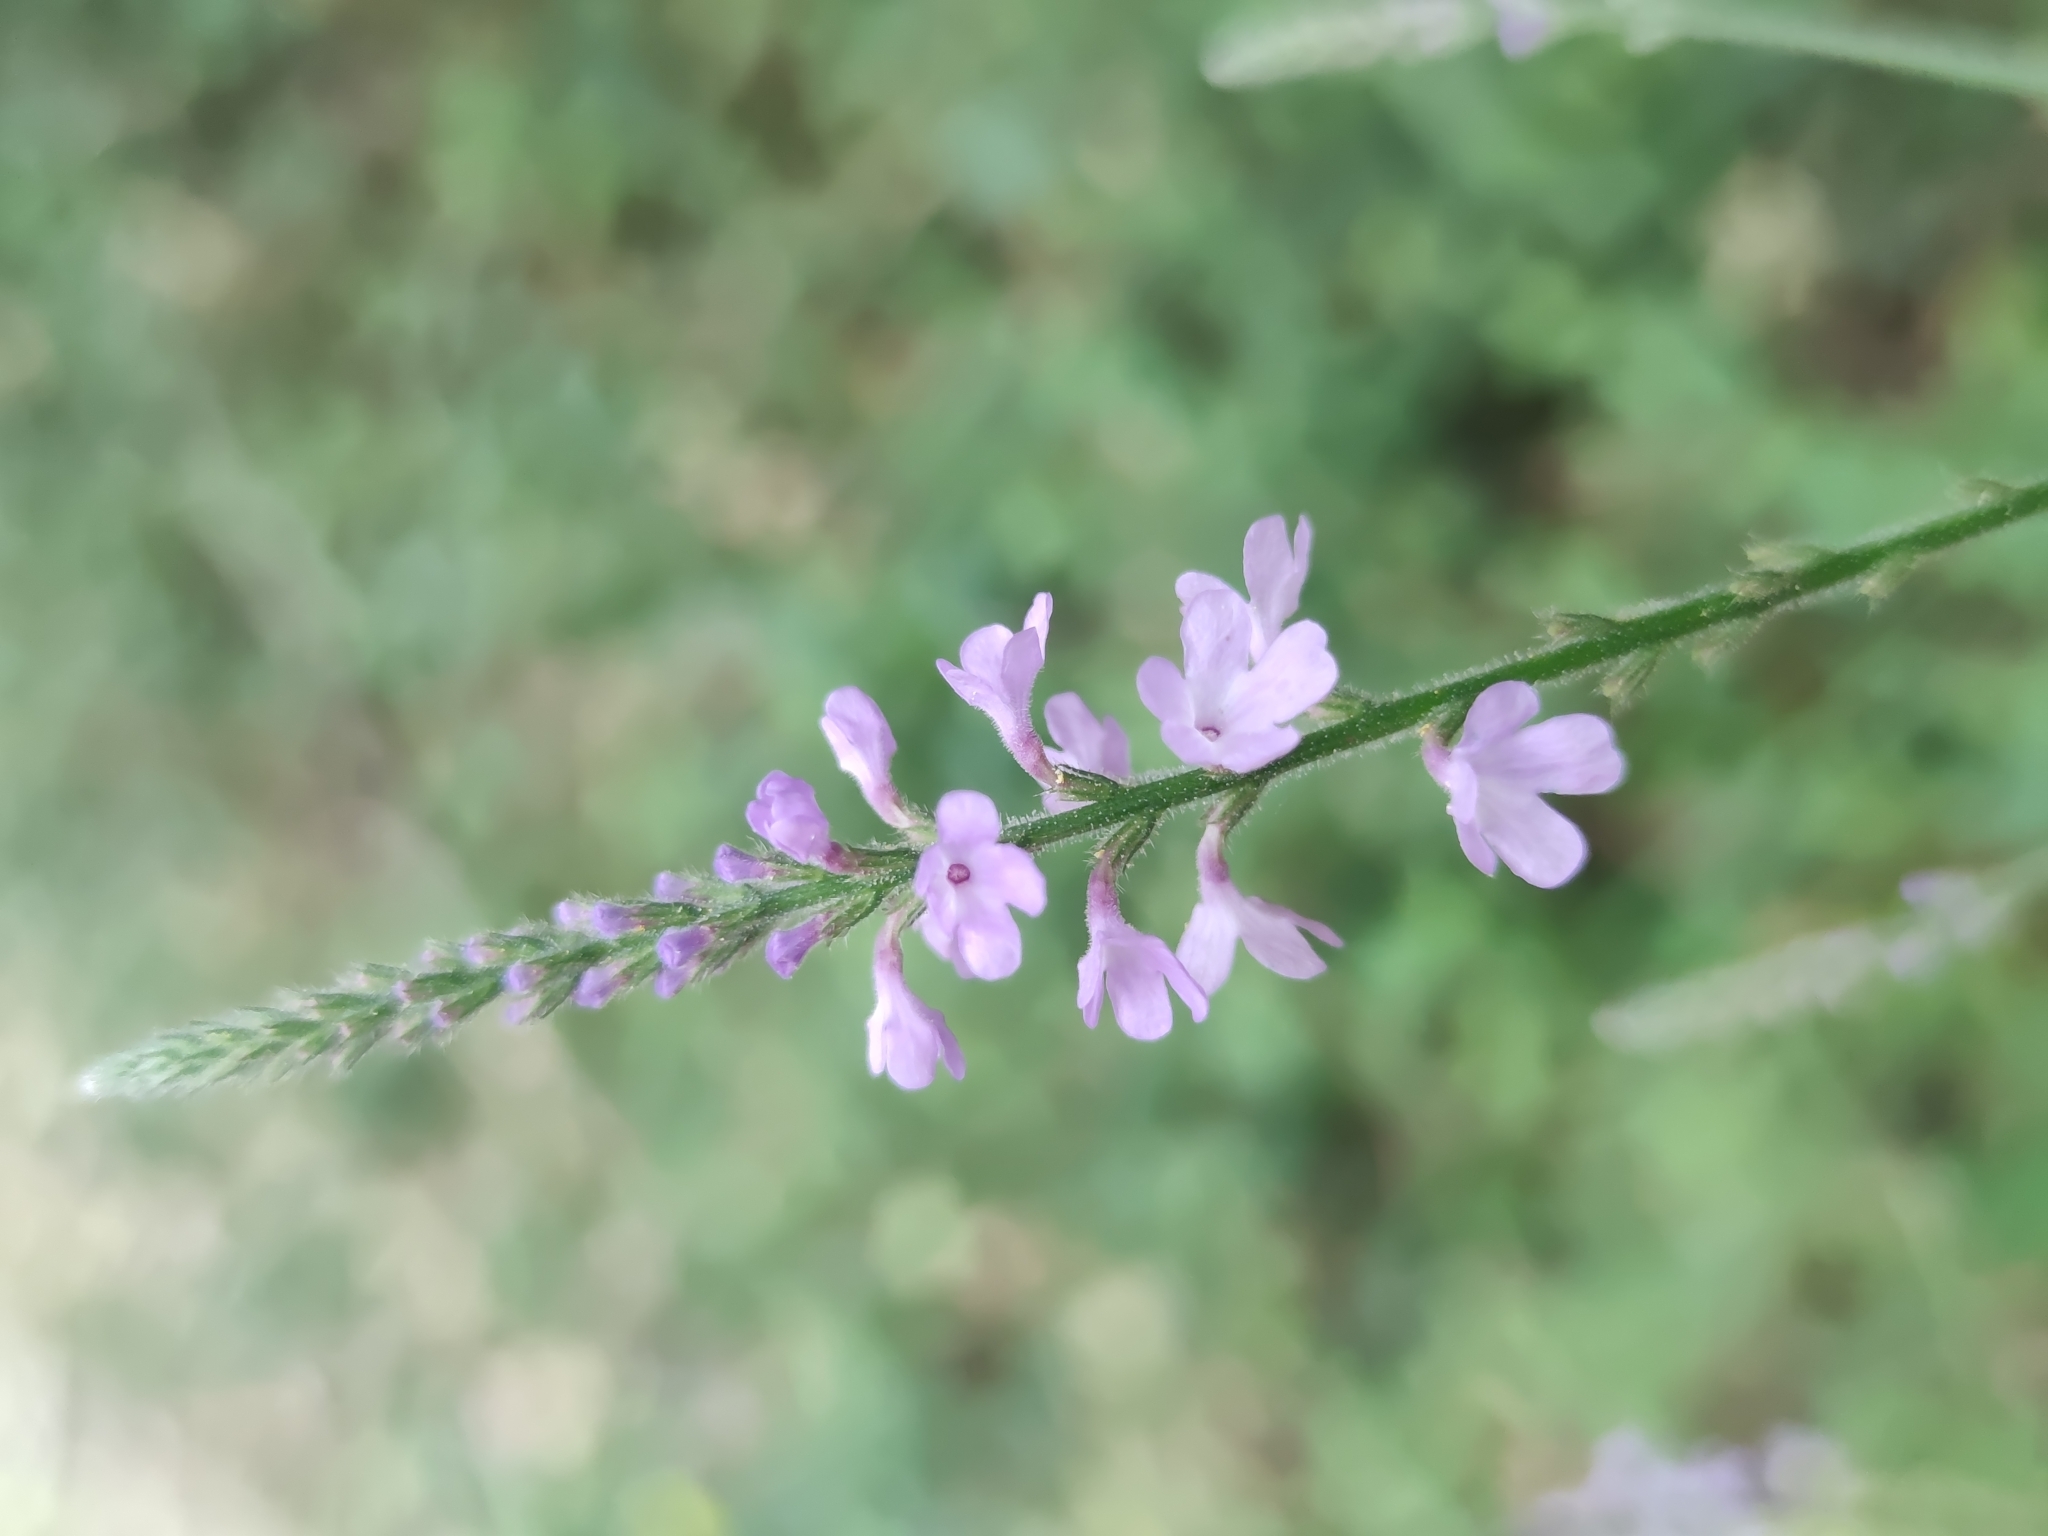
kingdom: Plantae
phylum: Tracheophyta
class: Magnoliopsida
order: Lamiales
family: Verbenaceae
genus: Verbena
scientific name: Verbena halei
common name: Texas vervain
